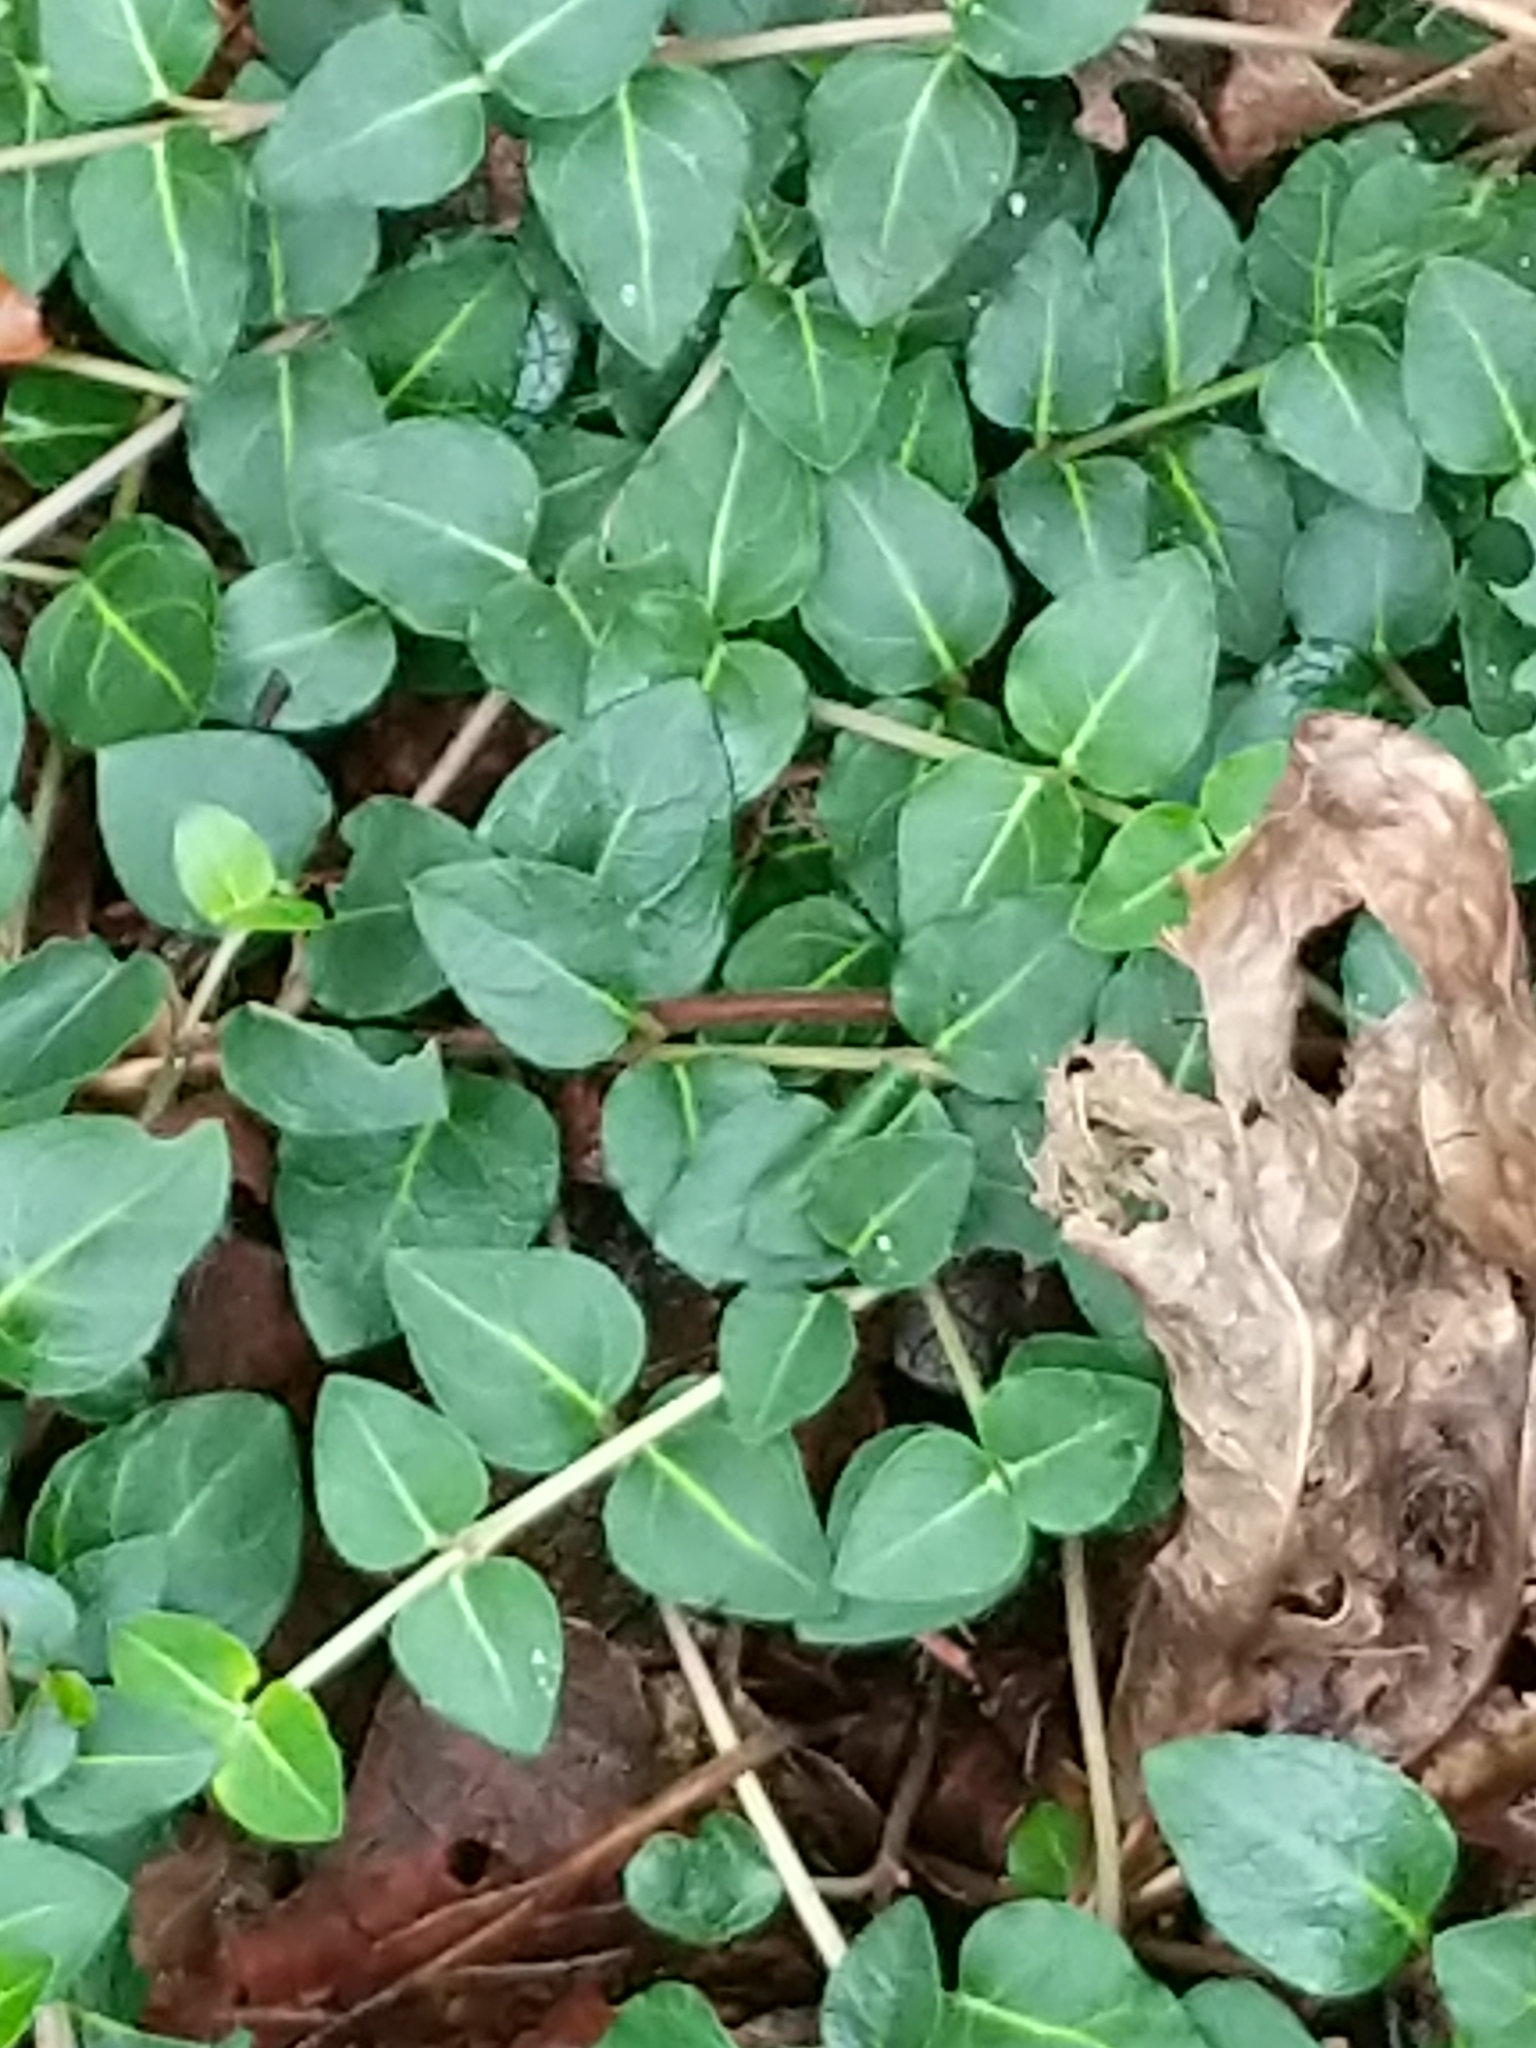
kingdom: Plantae
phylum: Tracheophyta
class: Magnoliopsida
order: Gentianales
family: Rubiaceae
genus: Mitchella
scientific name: Mitchella repens
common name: Partridge-berry
